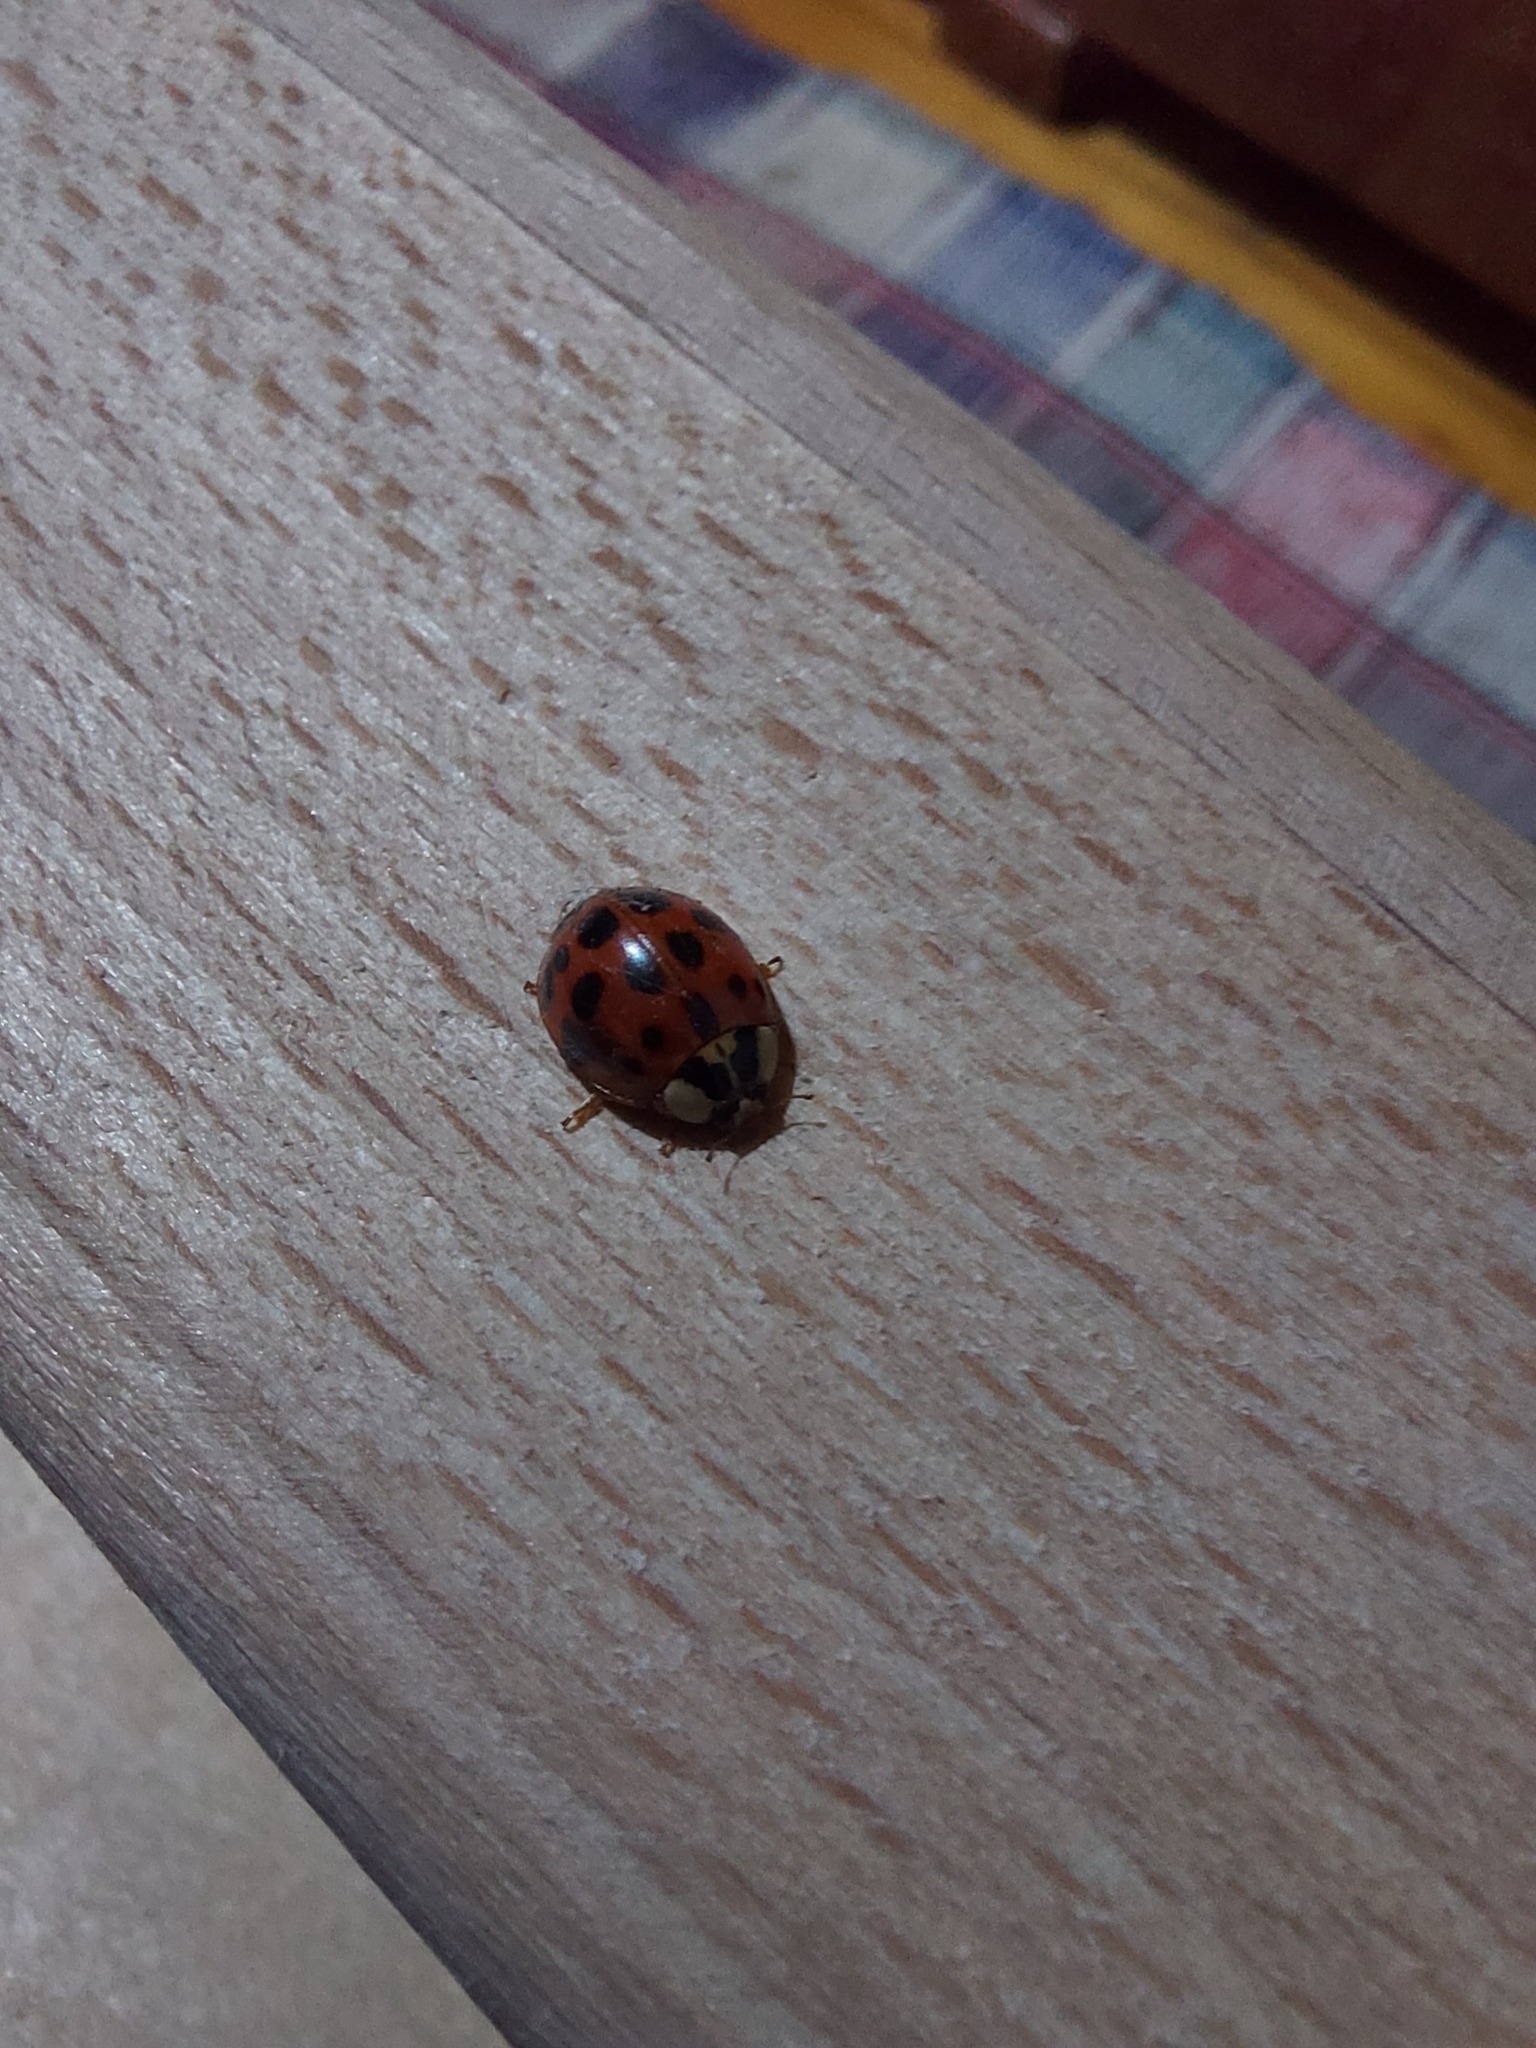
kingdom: Animalia
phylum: Arthropoda
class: Insecta
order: Coleoptera
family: Coccinellidae
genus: Harmonia
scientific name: Harmonia axyridis
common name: Harlequin ladybird
